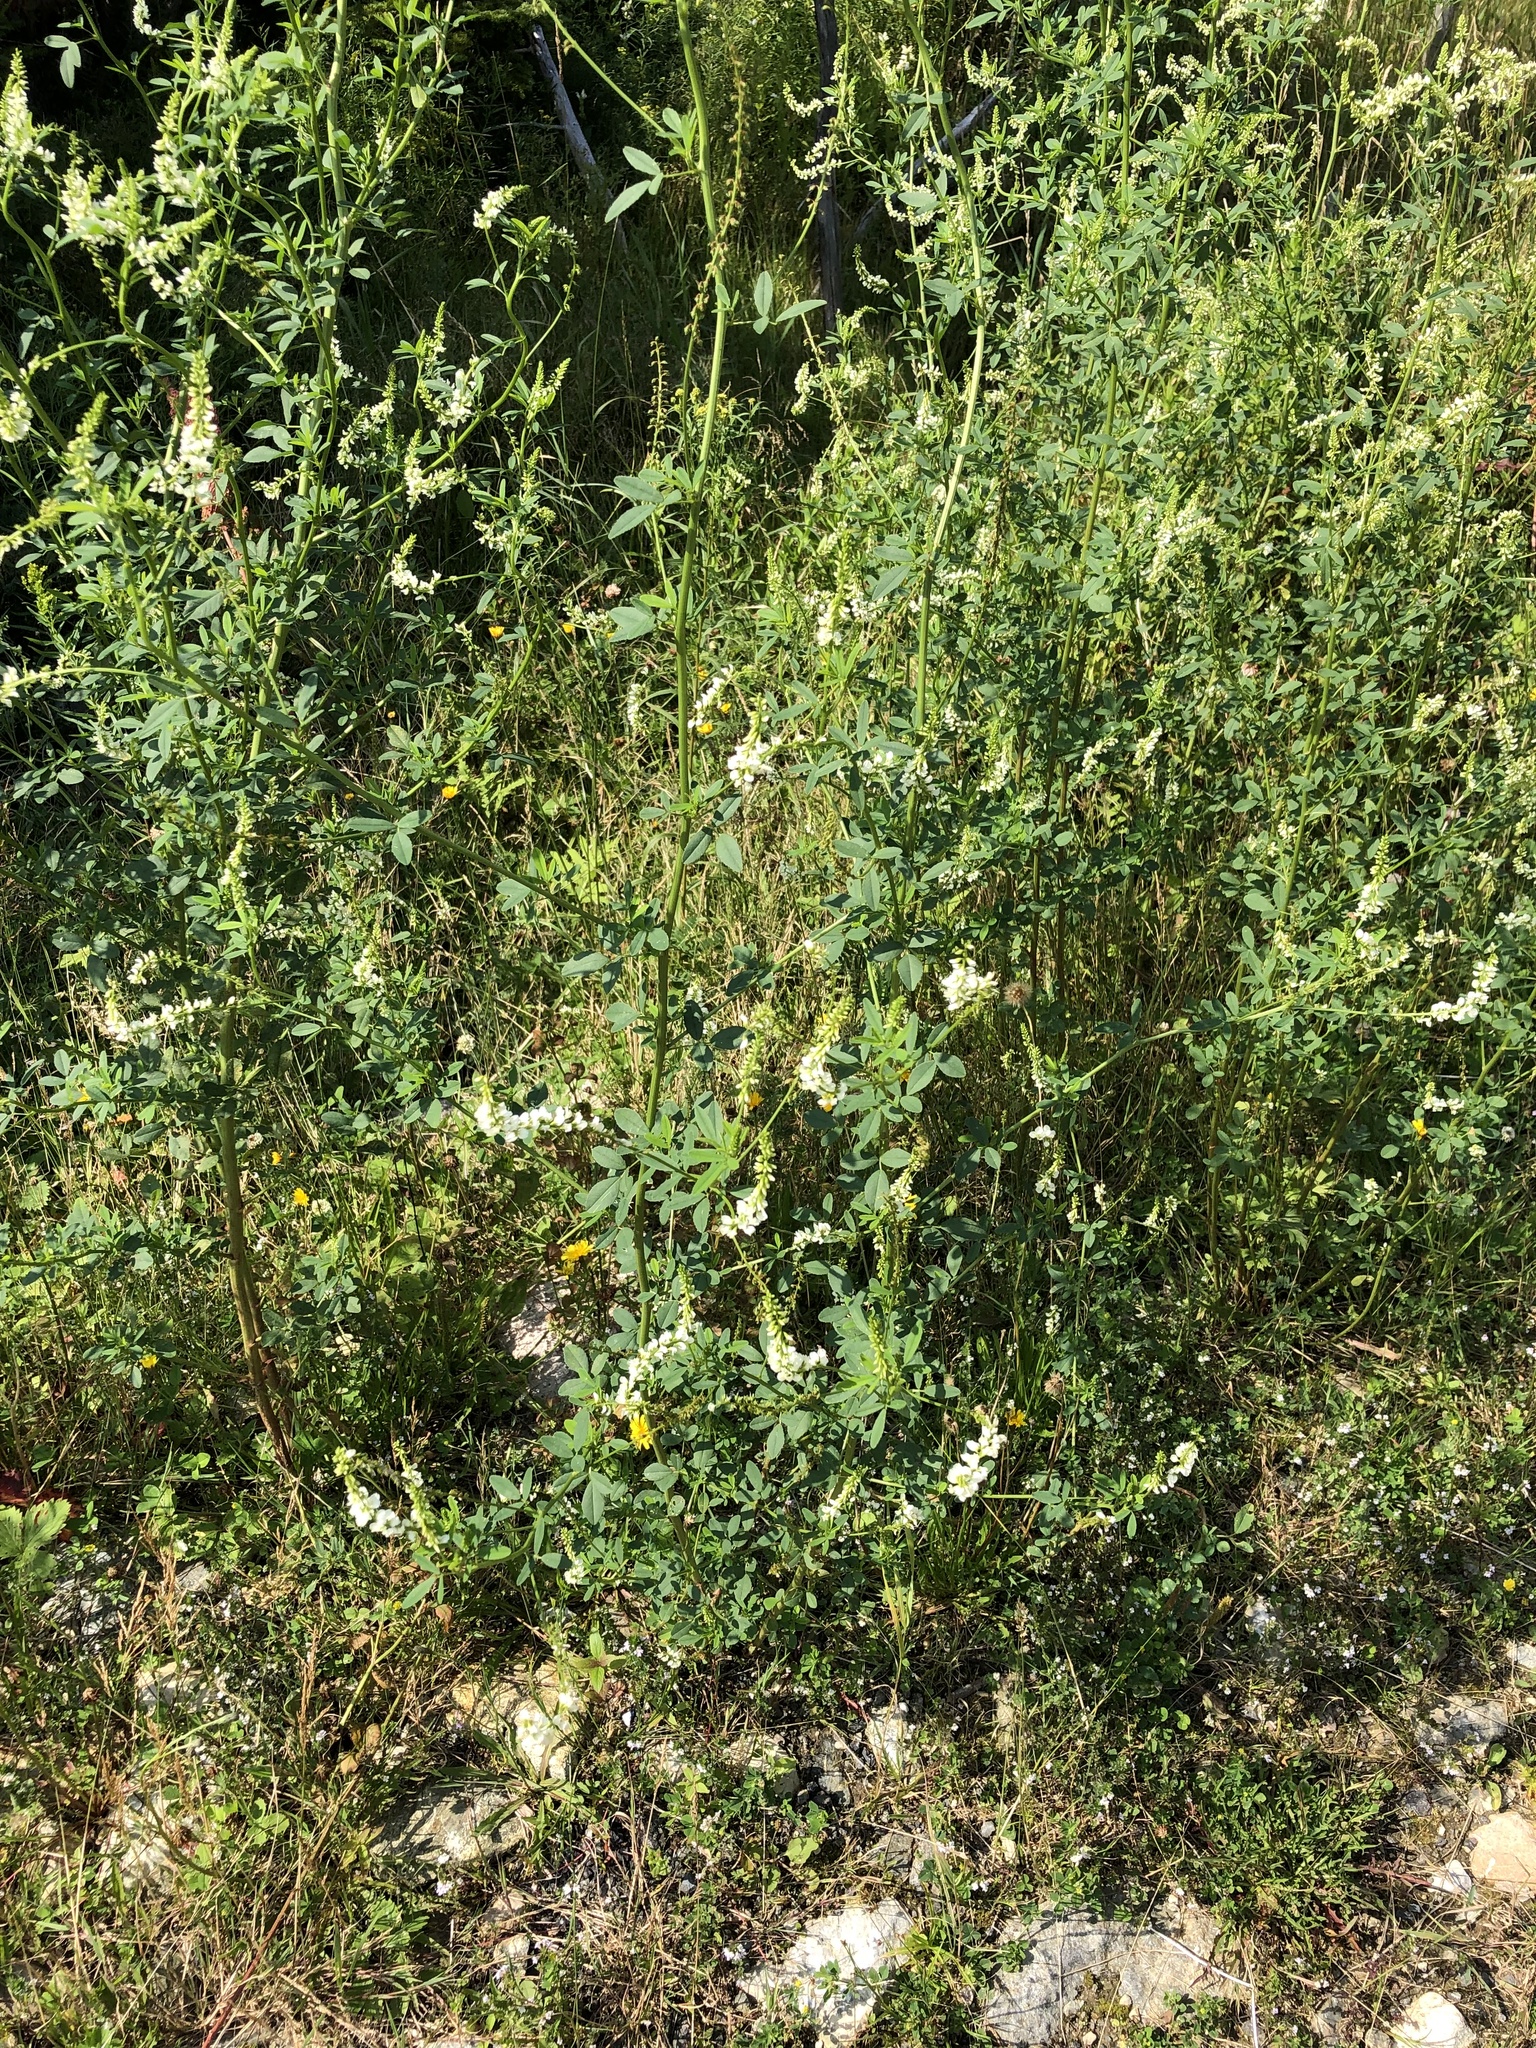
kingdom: Plantae
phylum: Tracheophyta
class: Magnoliopsida
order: Fabales
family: Fabaceae
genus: Melilotus
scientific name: Melilotus albus
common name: White melilot
